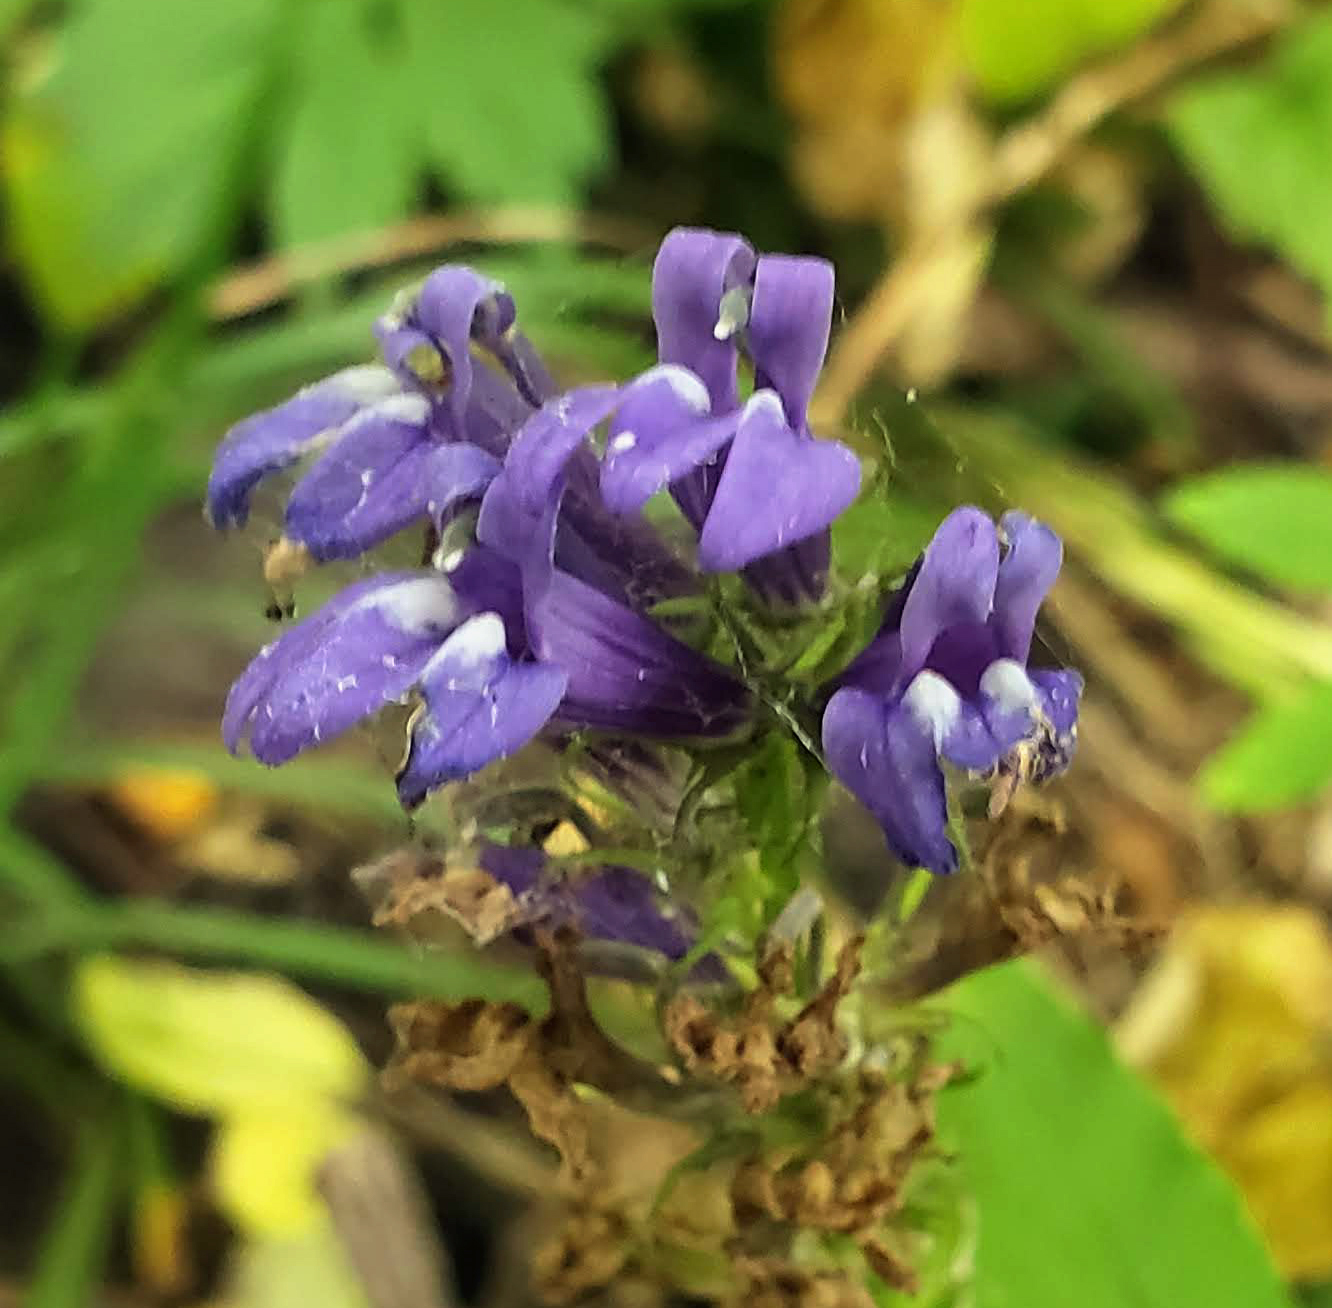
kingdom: Plantae
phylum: Tracheophyta
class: Magnoliopsida
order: Asterales
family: Campanulaceae
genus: Lobelia
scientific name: Lobelia siphilitica
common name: Great lobelia
